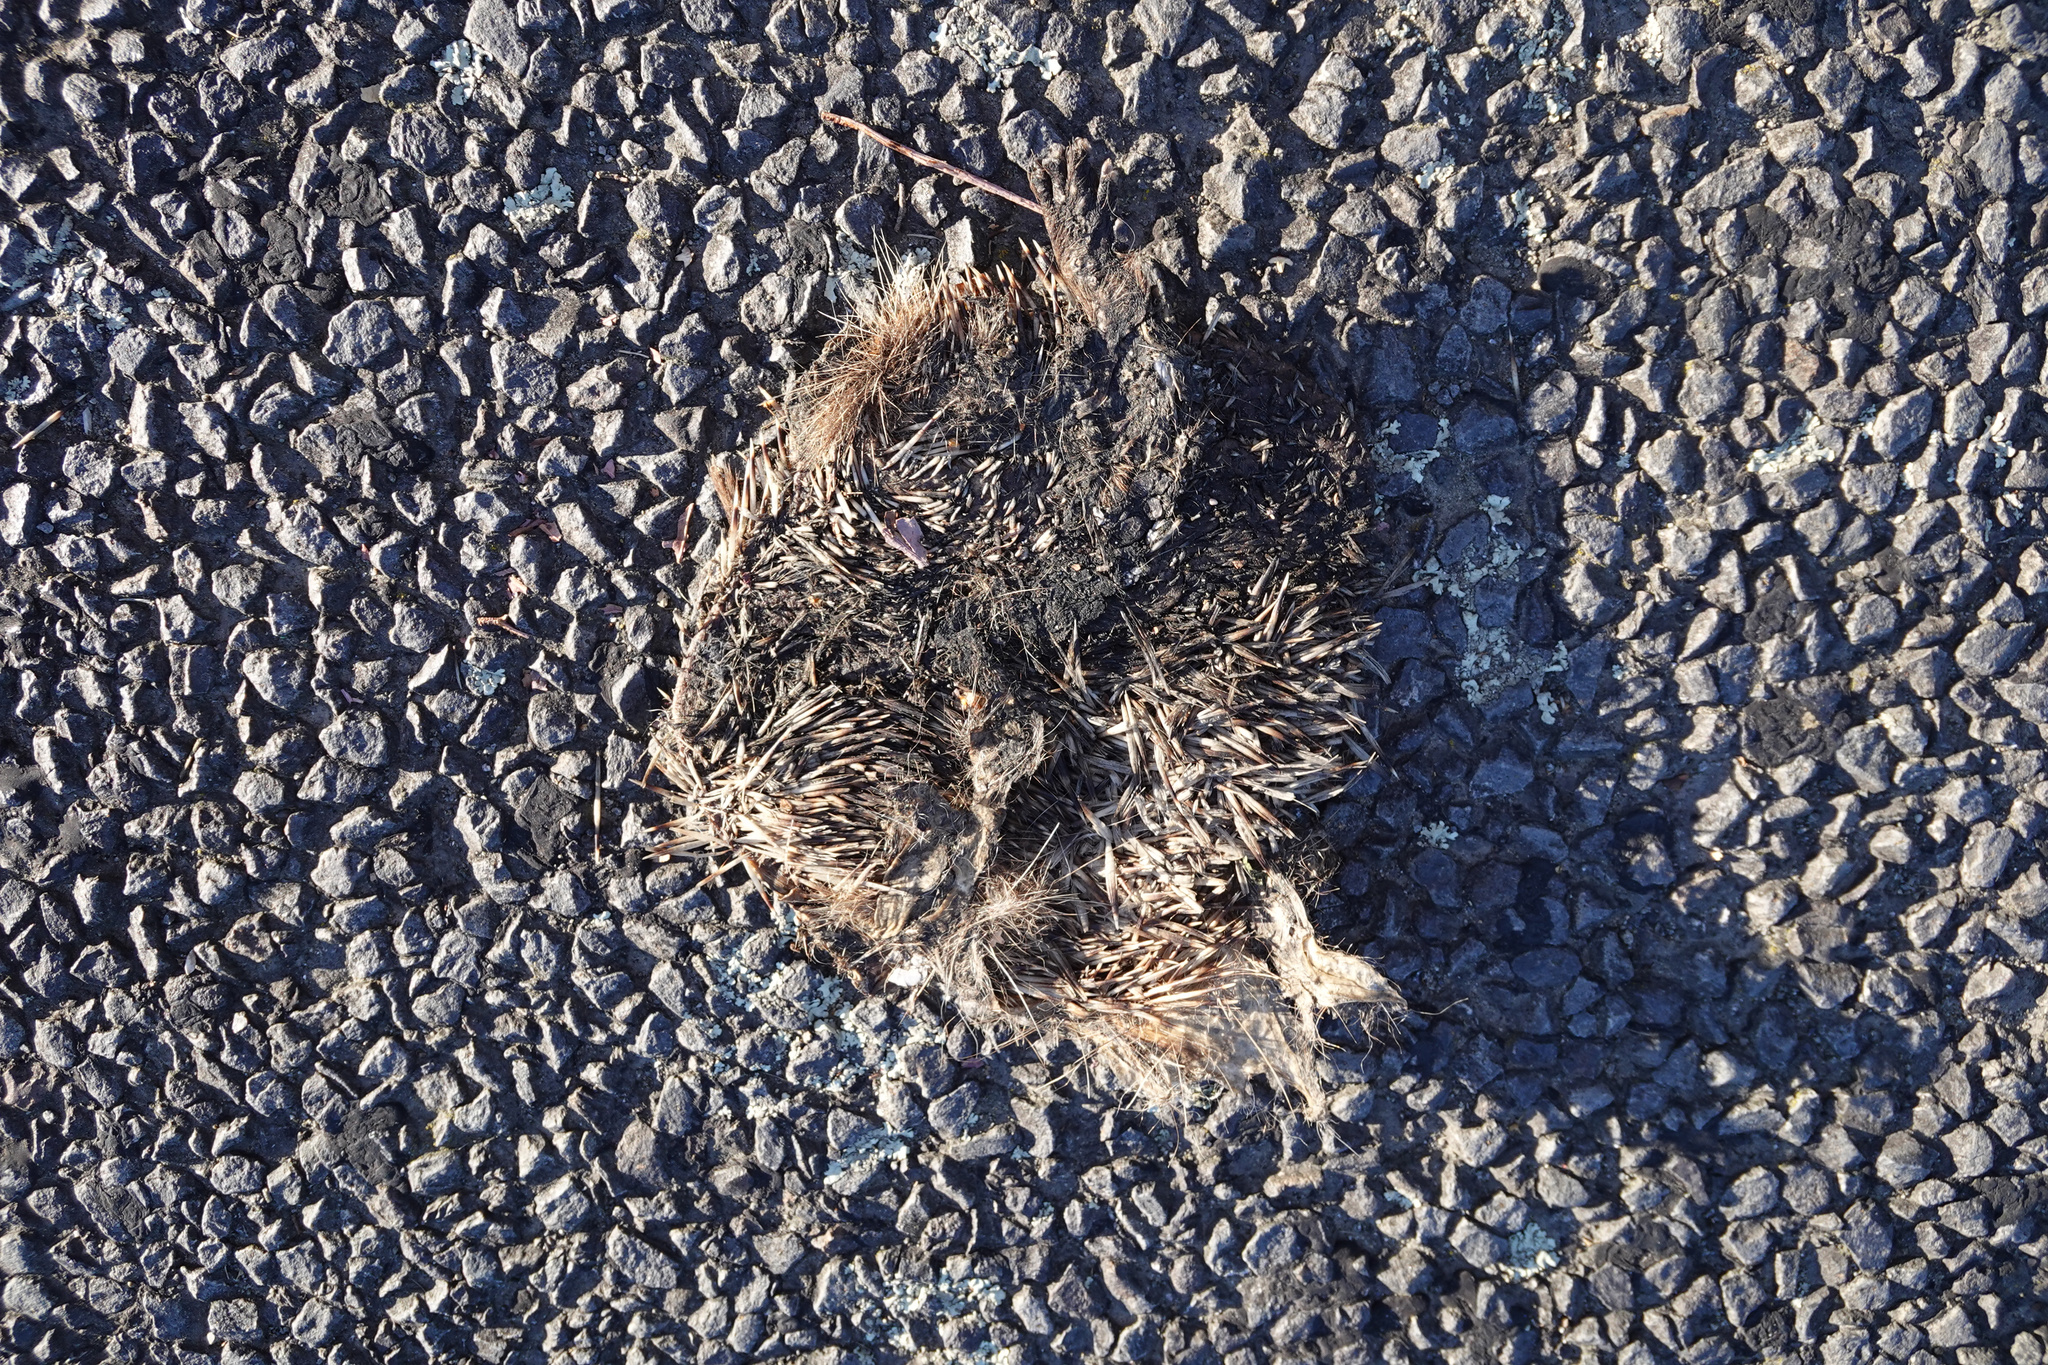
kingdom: Animalia
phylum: Chordata
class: Mammalia
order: Erinaceomorpha
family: Erinaceidae
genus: Erinaceus
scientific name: Erinaceus europaeus
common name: West european hedgehog
